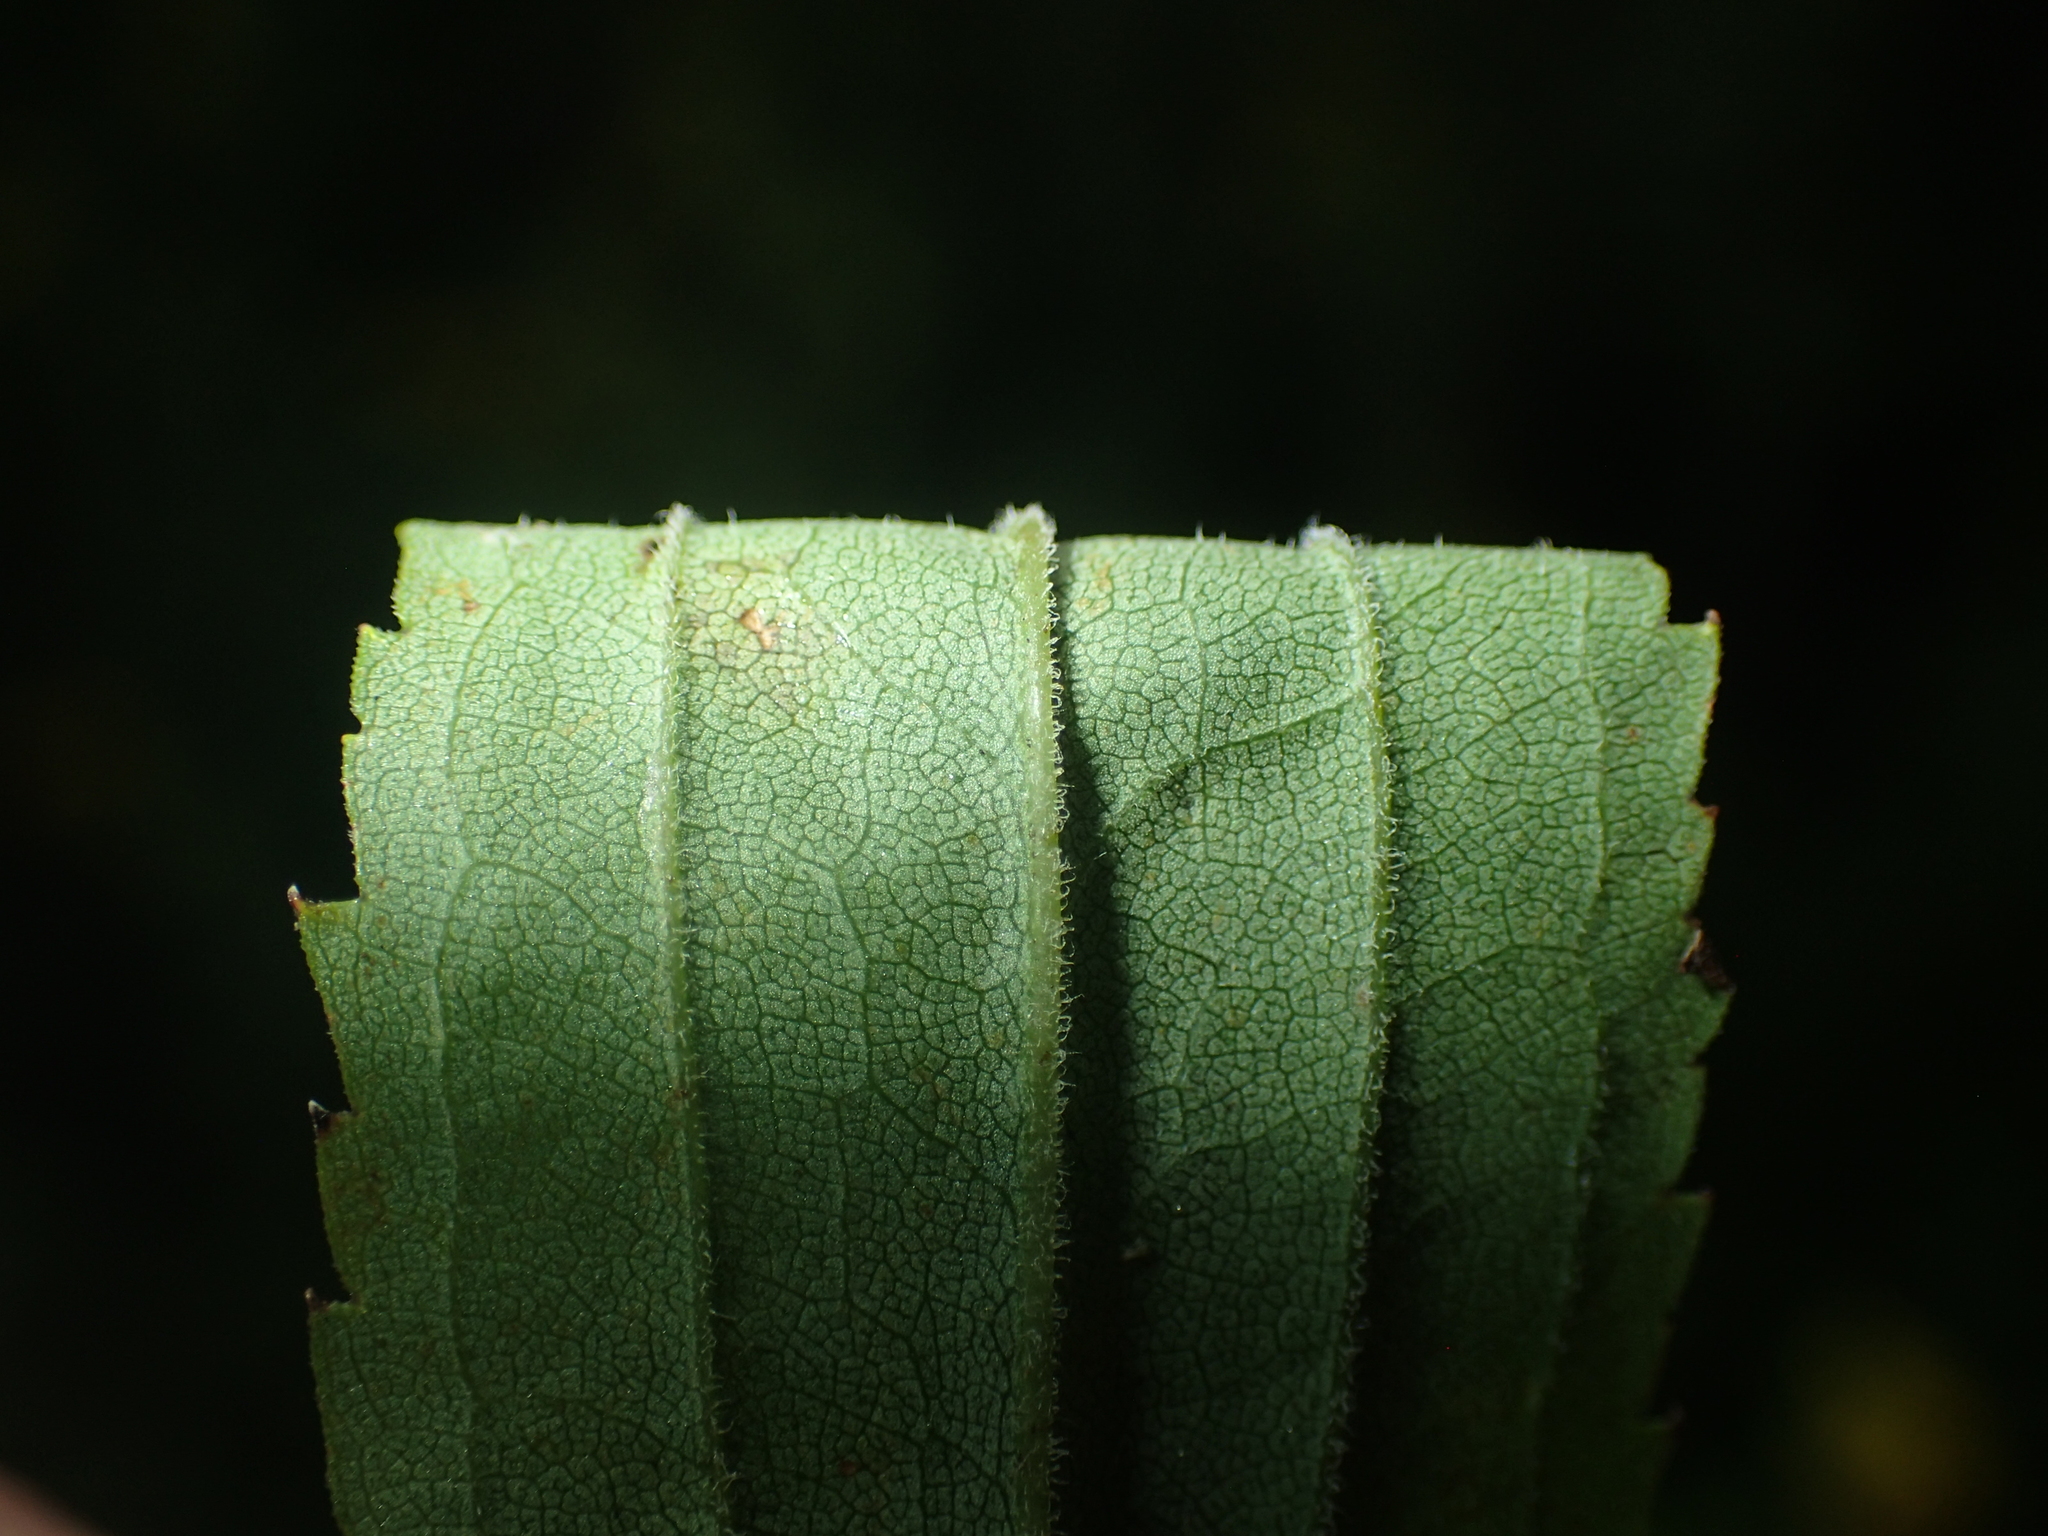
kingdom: Plantae
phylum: Tracheophyta
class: Magnoliopsida
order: Asterales
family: Asteraceae
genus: Solidago
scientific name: Solidago gigantea
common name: Giant goldenrod
